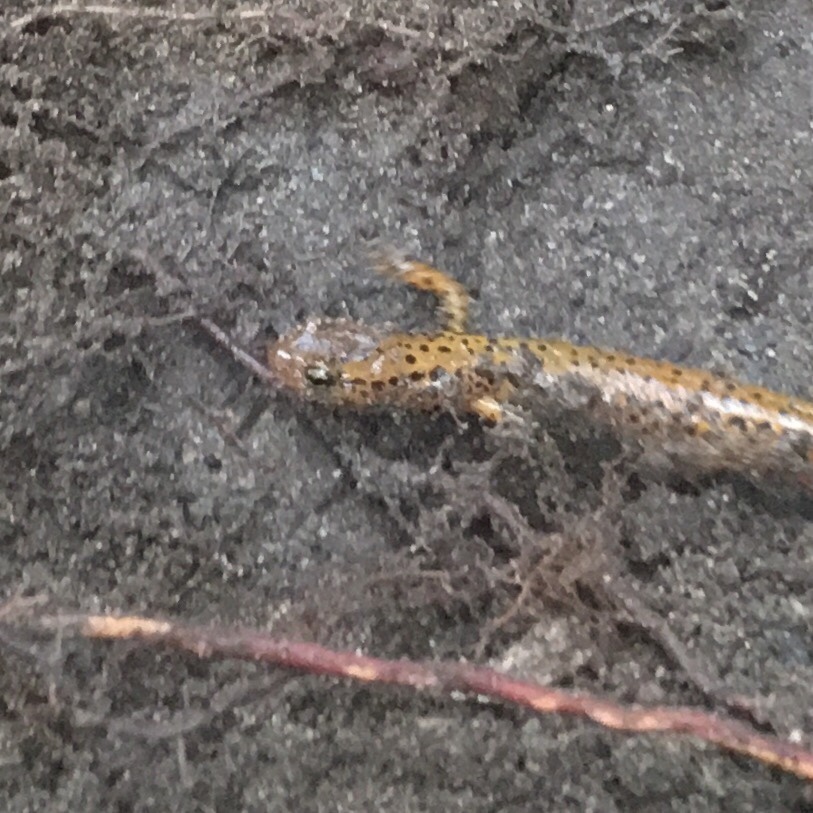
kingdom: Animalia
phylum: Chordata
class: Amphibia
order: Caudata
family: Plethodontidae
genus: Eurycea
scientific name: Eurycea longicauda
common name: Long-tailed salamander
